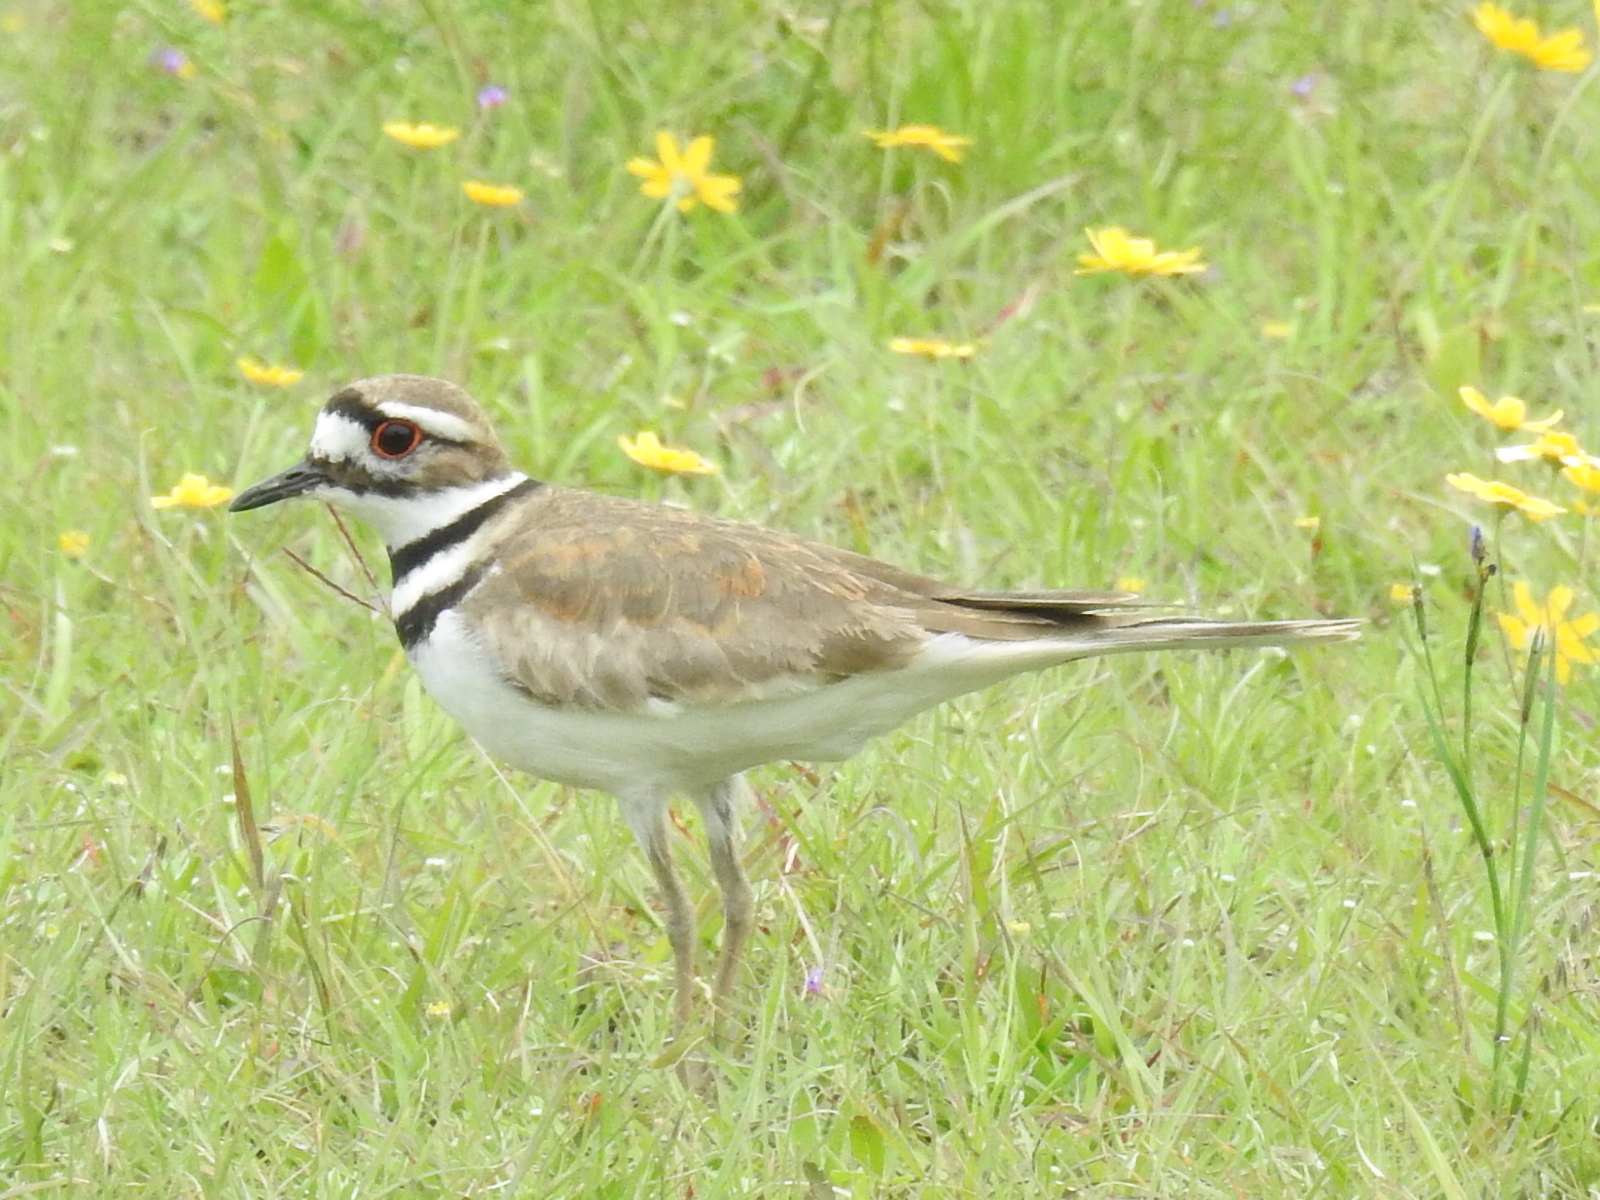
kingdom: Animalia
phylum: Chordata
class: Aves
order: Charadriiformes
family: Charadriidae
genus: Charadrius
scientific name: Charadrius vociferus
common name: Killdeer
